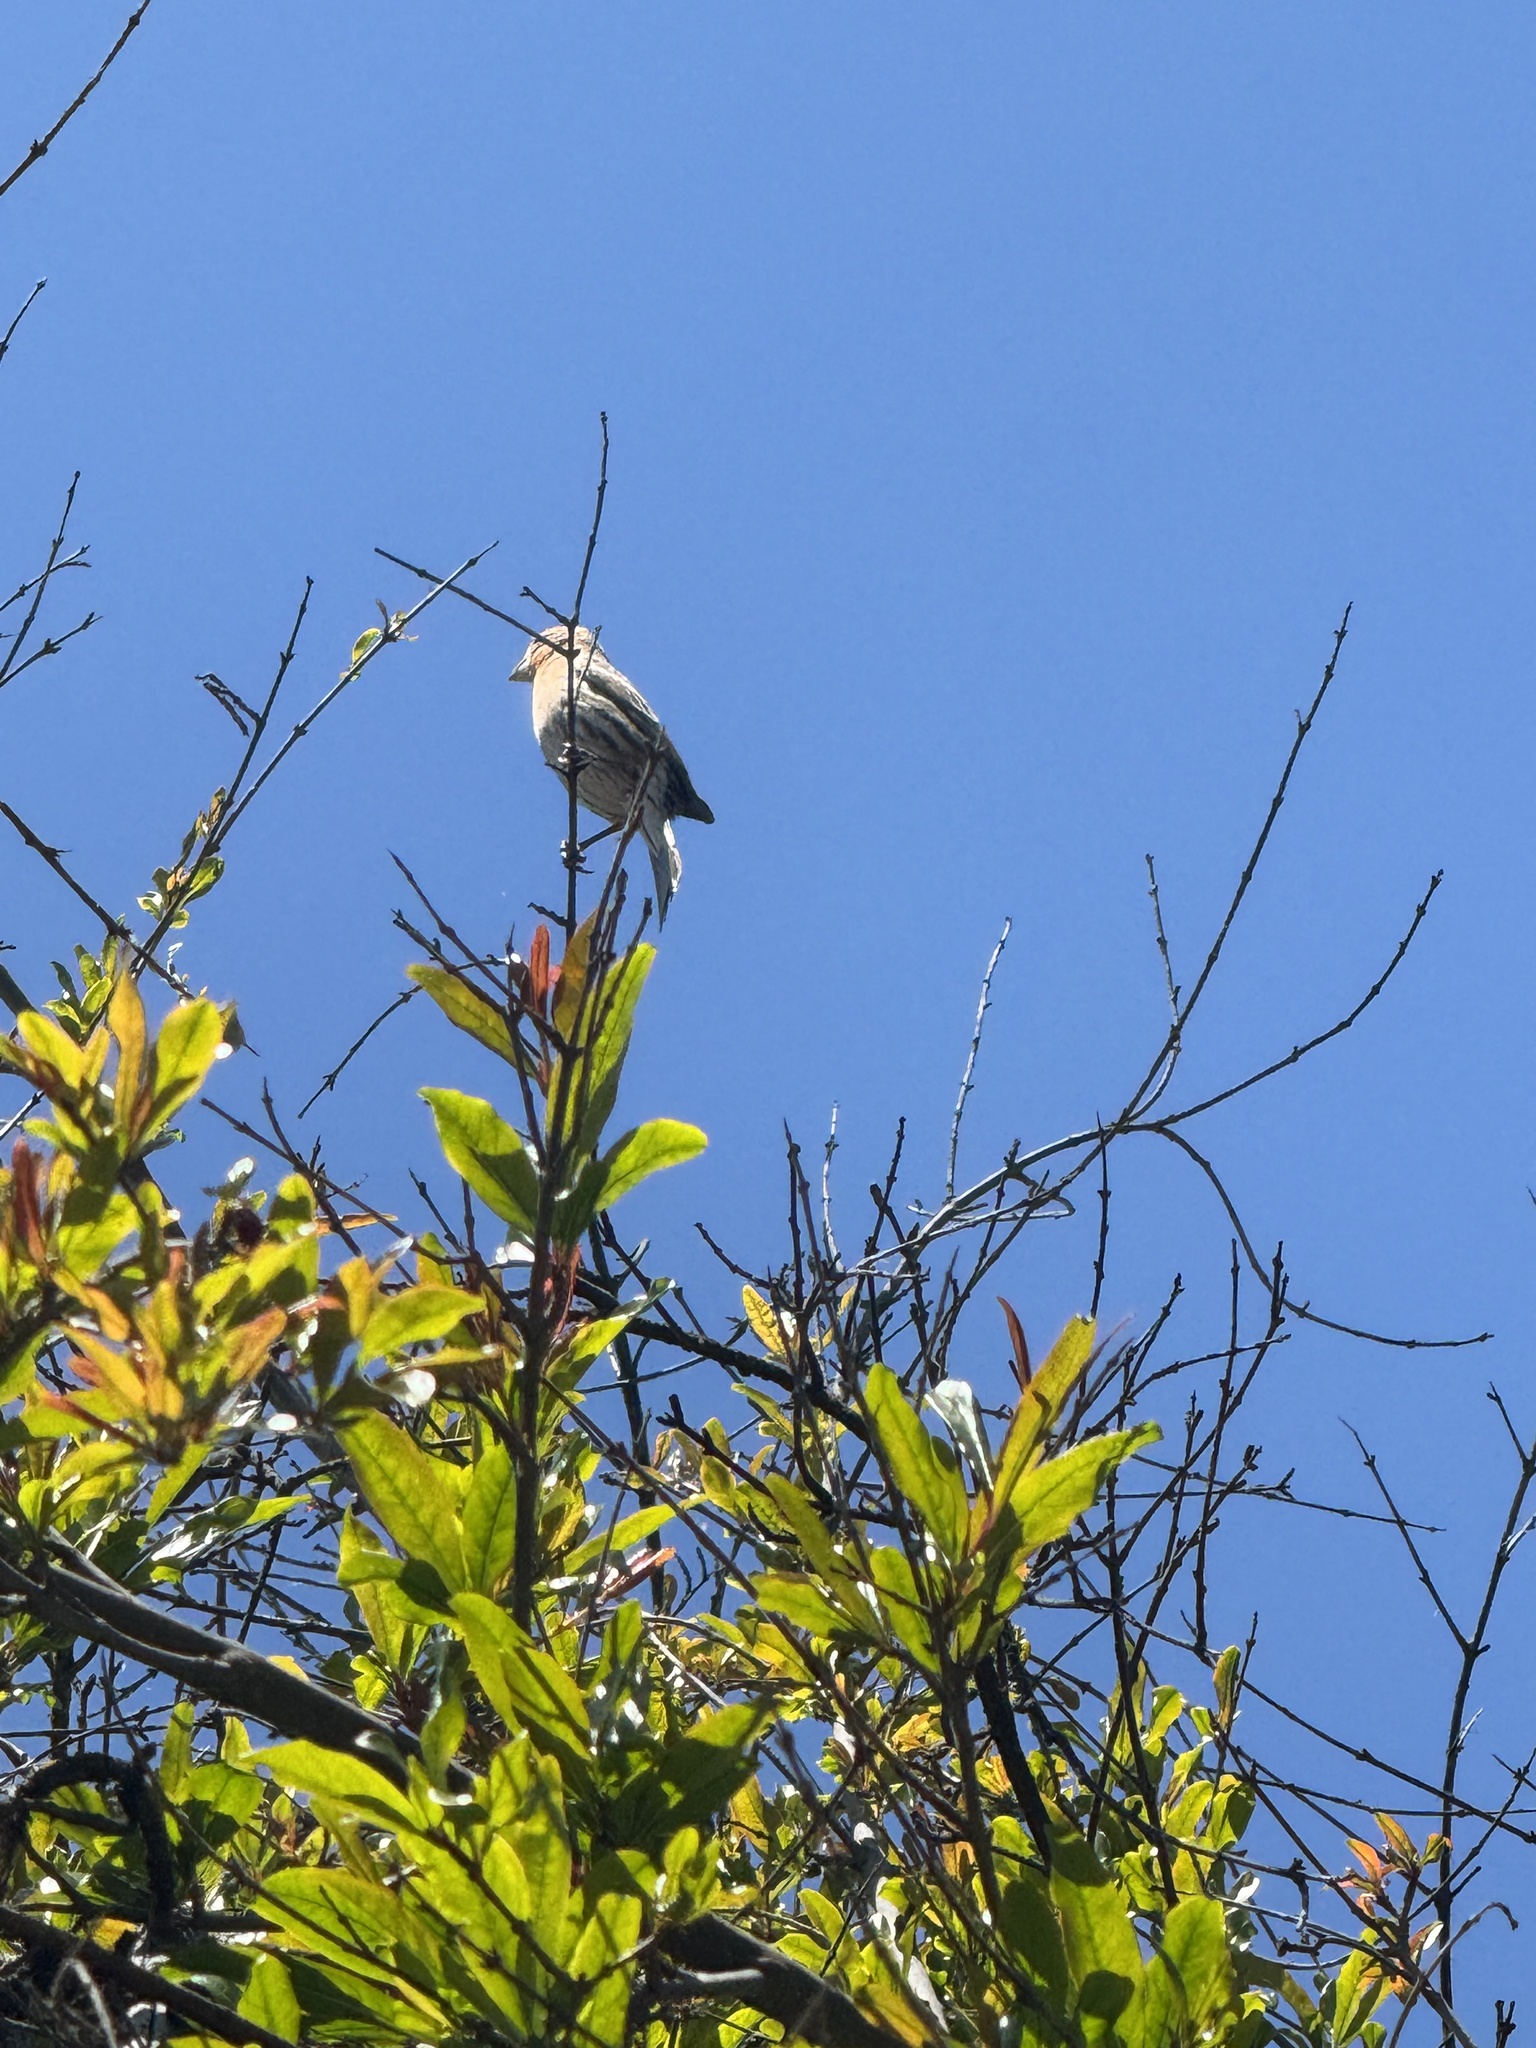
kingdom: Animalia
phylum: Chordata
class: Aves
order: Passeriformes
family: Fringillidae
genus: Haemorhous
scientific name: Haemorhous mexicanus
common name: House finch
